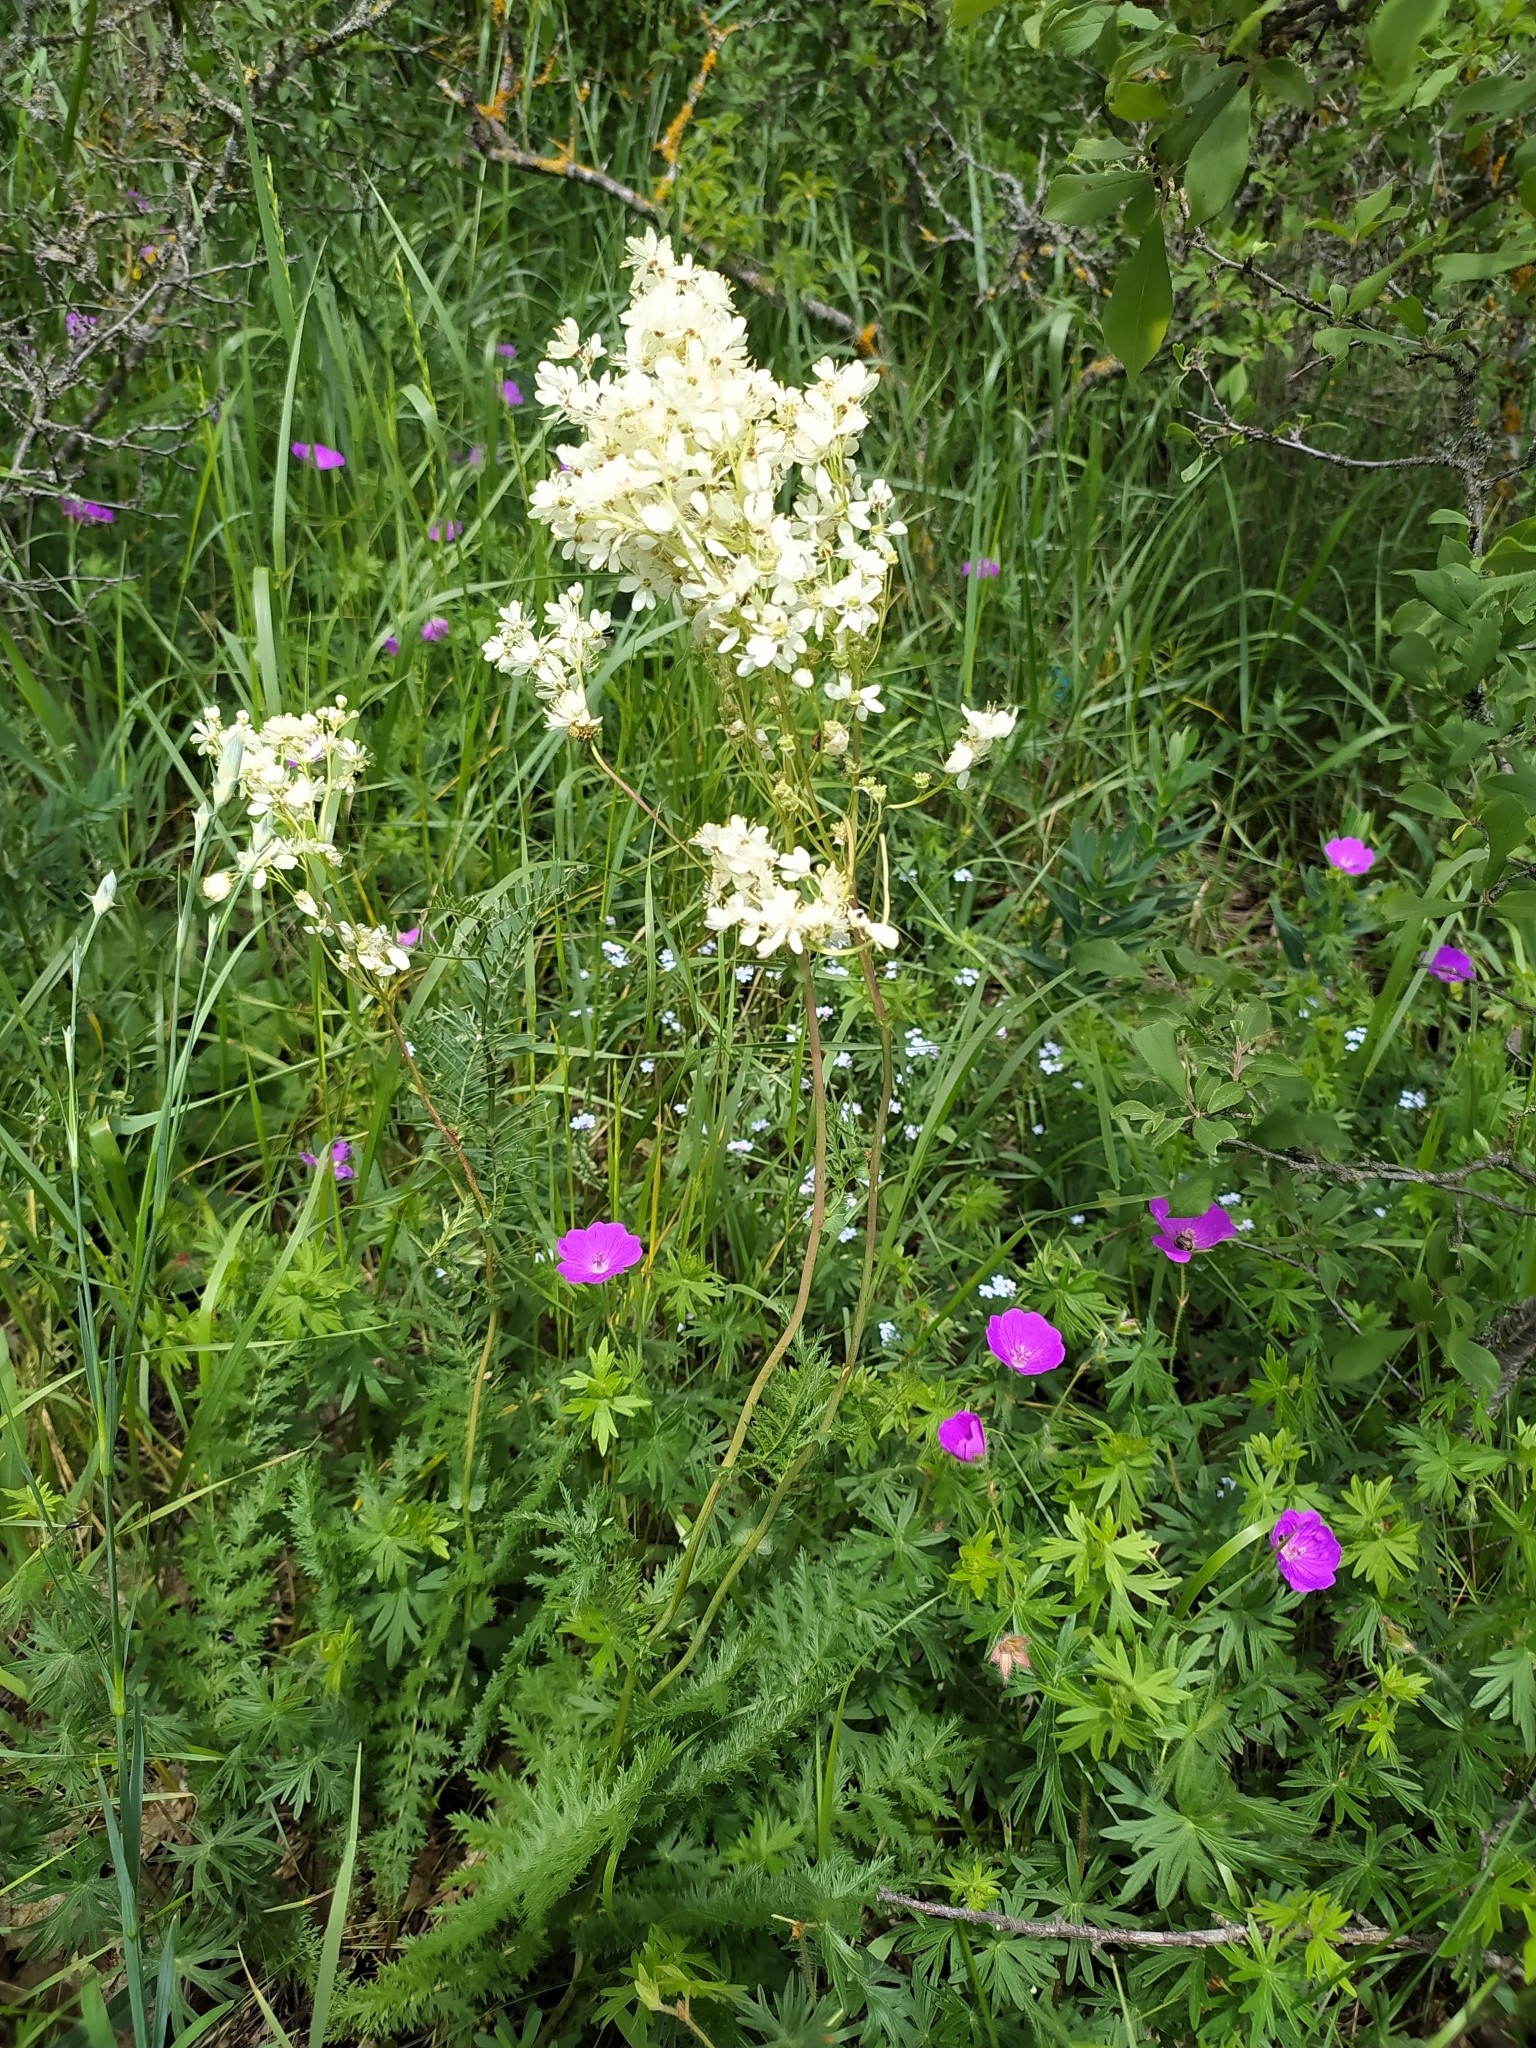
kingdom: Plantae
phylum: Tracheophyta
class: Magnoliopsida
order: Rosales
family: Rosaceae
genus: Filipendula
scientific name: Filipendula vulgaris
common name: Dropwort
